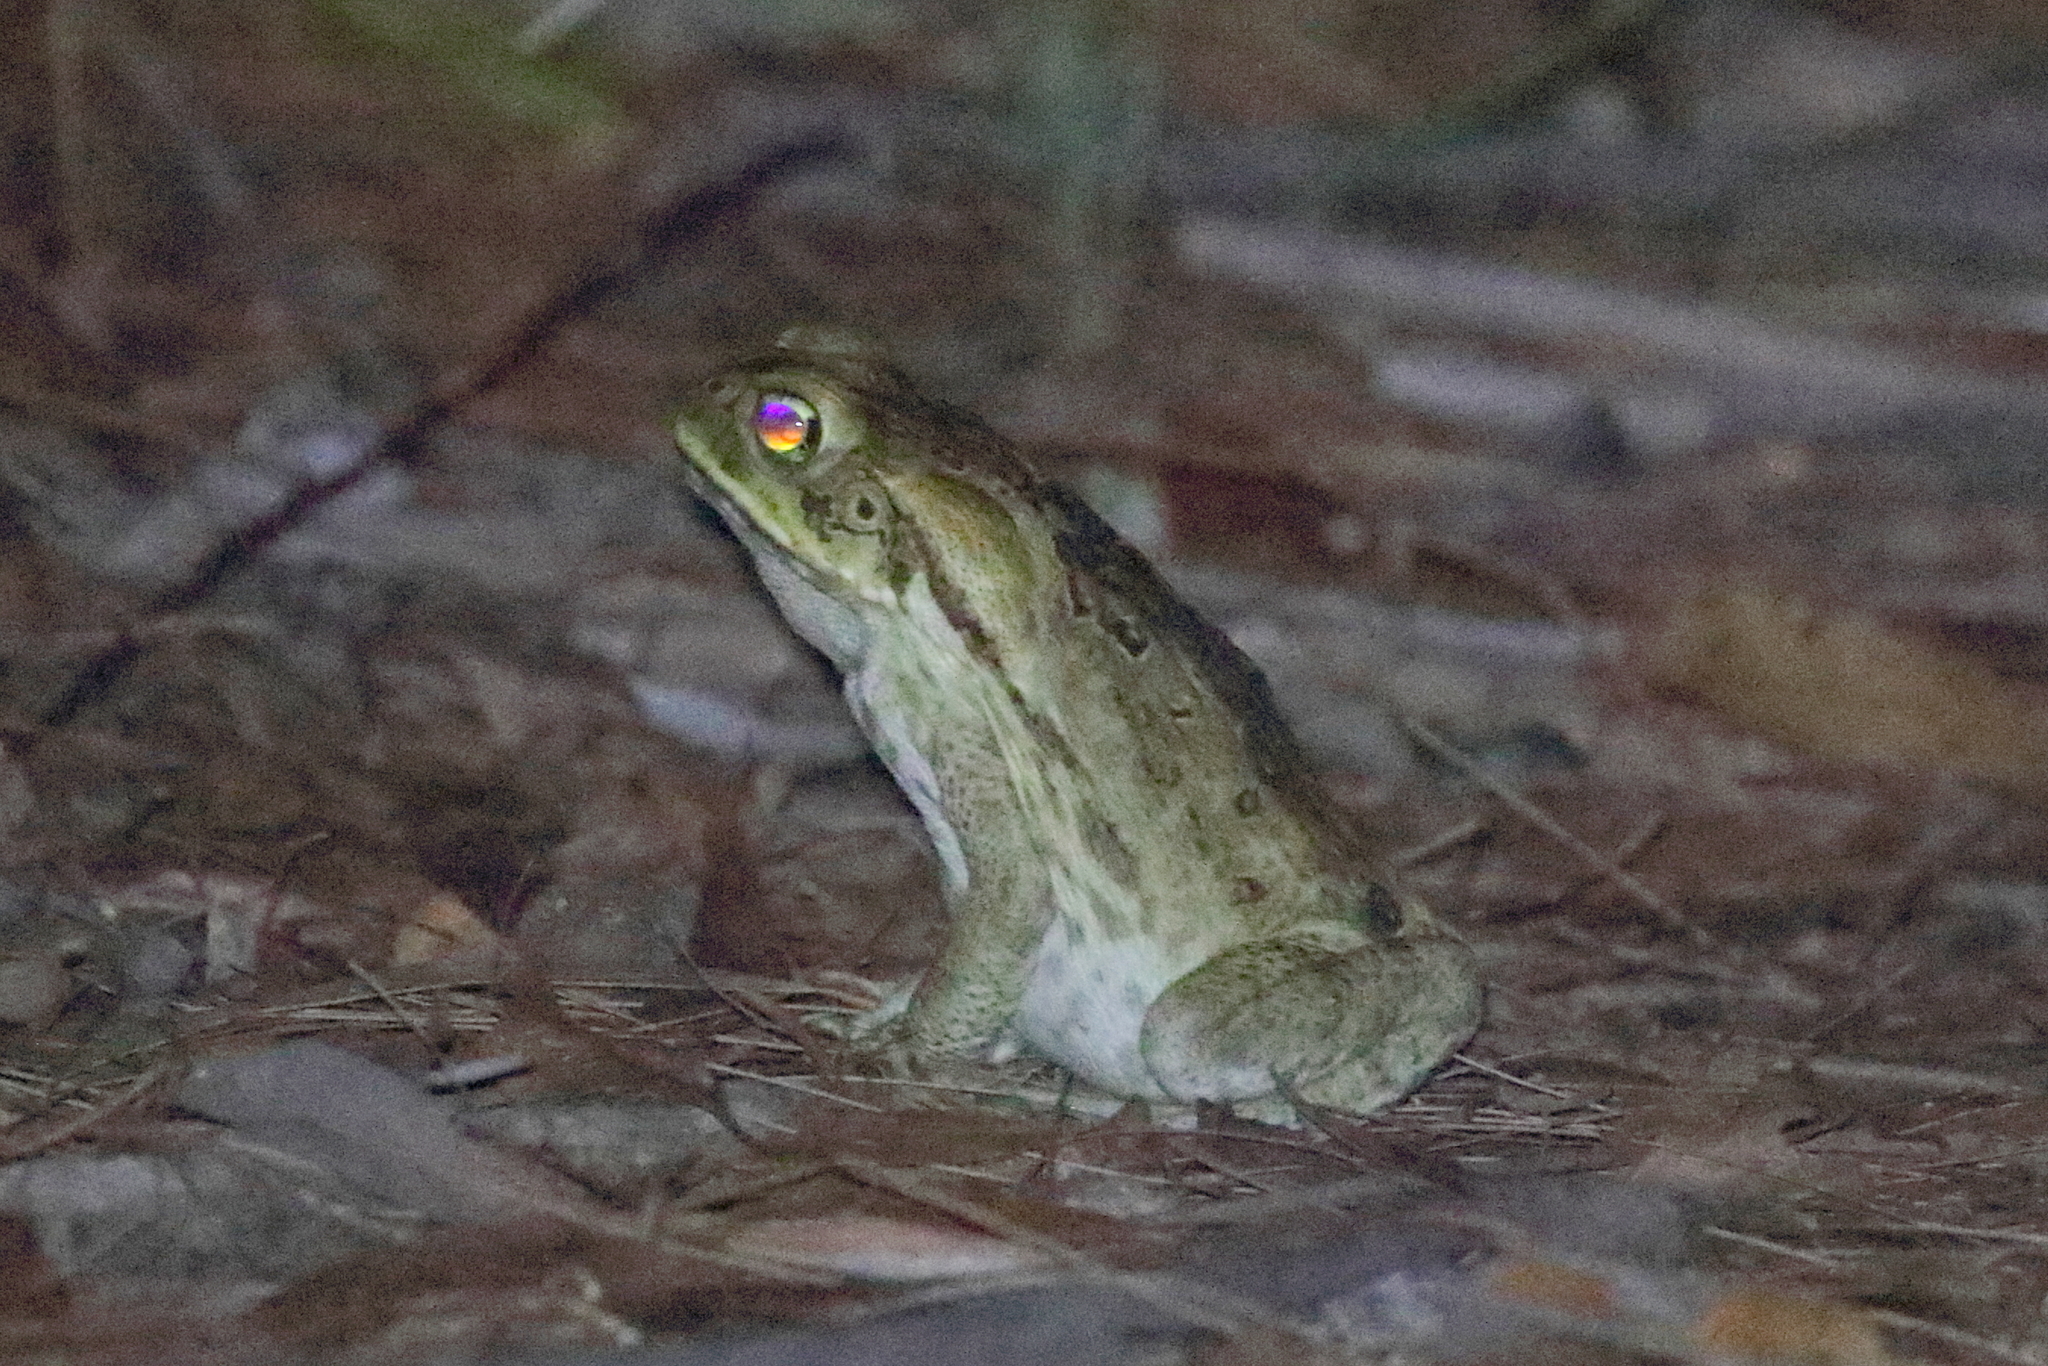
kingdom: Animalia
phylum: Chordata
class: Amphibia
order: Anura
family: Bufonidae
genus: Rhinella
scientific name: Rhinella marina
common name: Cane toad
